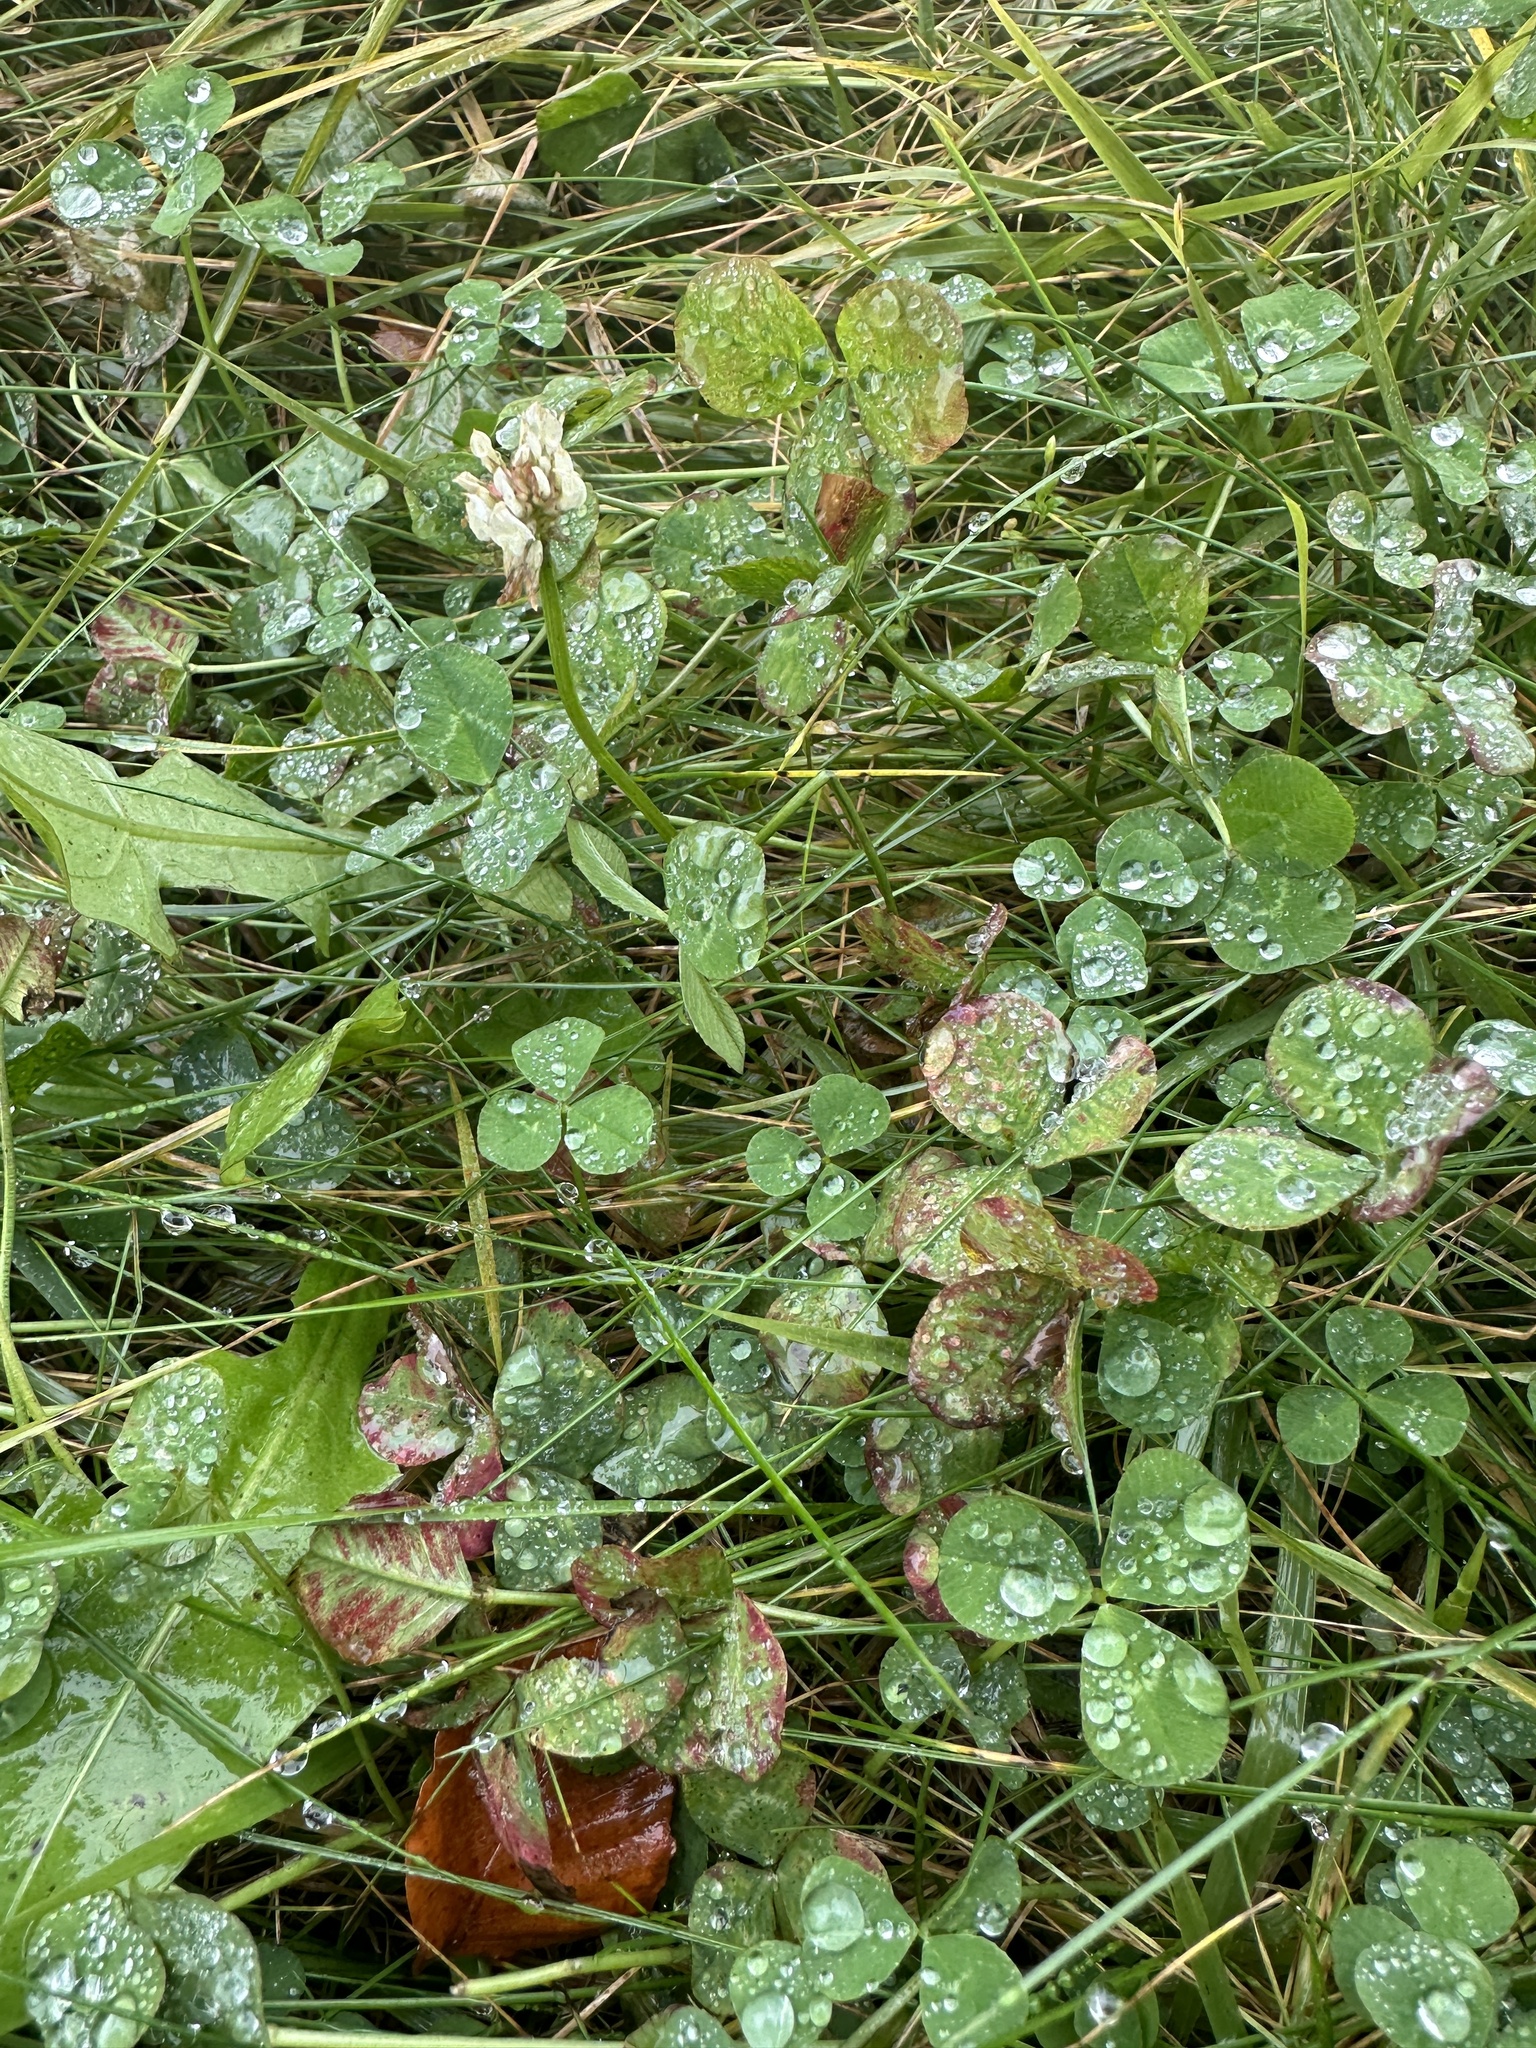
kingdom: Plantae
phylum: Tracheophyta
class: Magnoliopsida
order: Fabales
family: Fabaceae
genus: Trifolium
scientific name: Trifolium repens
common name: White clover
